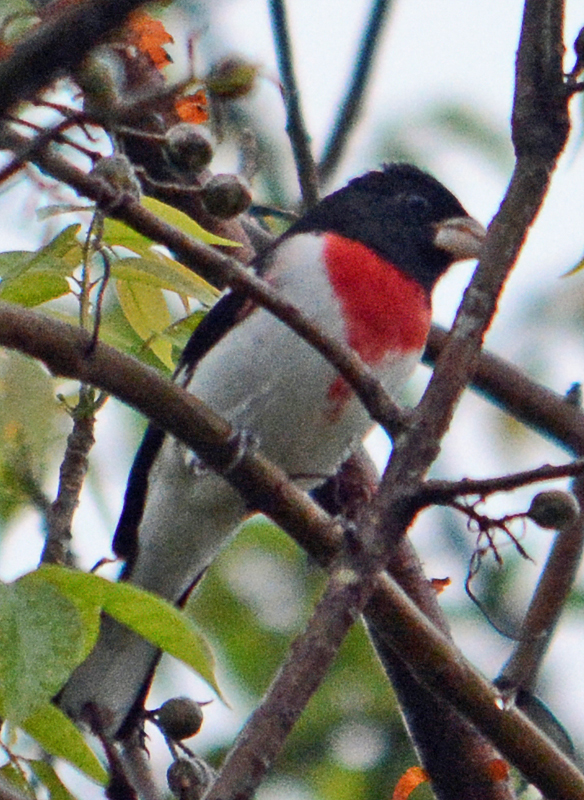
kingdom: Animalia
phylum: Chordata
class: Aves
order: Passeriformes
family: Cardinalidae
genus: Pheucticus
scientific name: Pheucticus ludovicianus
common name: Rose-breasted grosbeak
